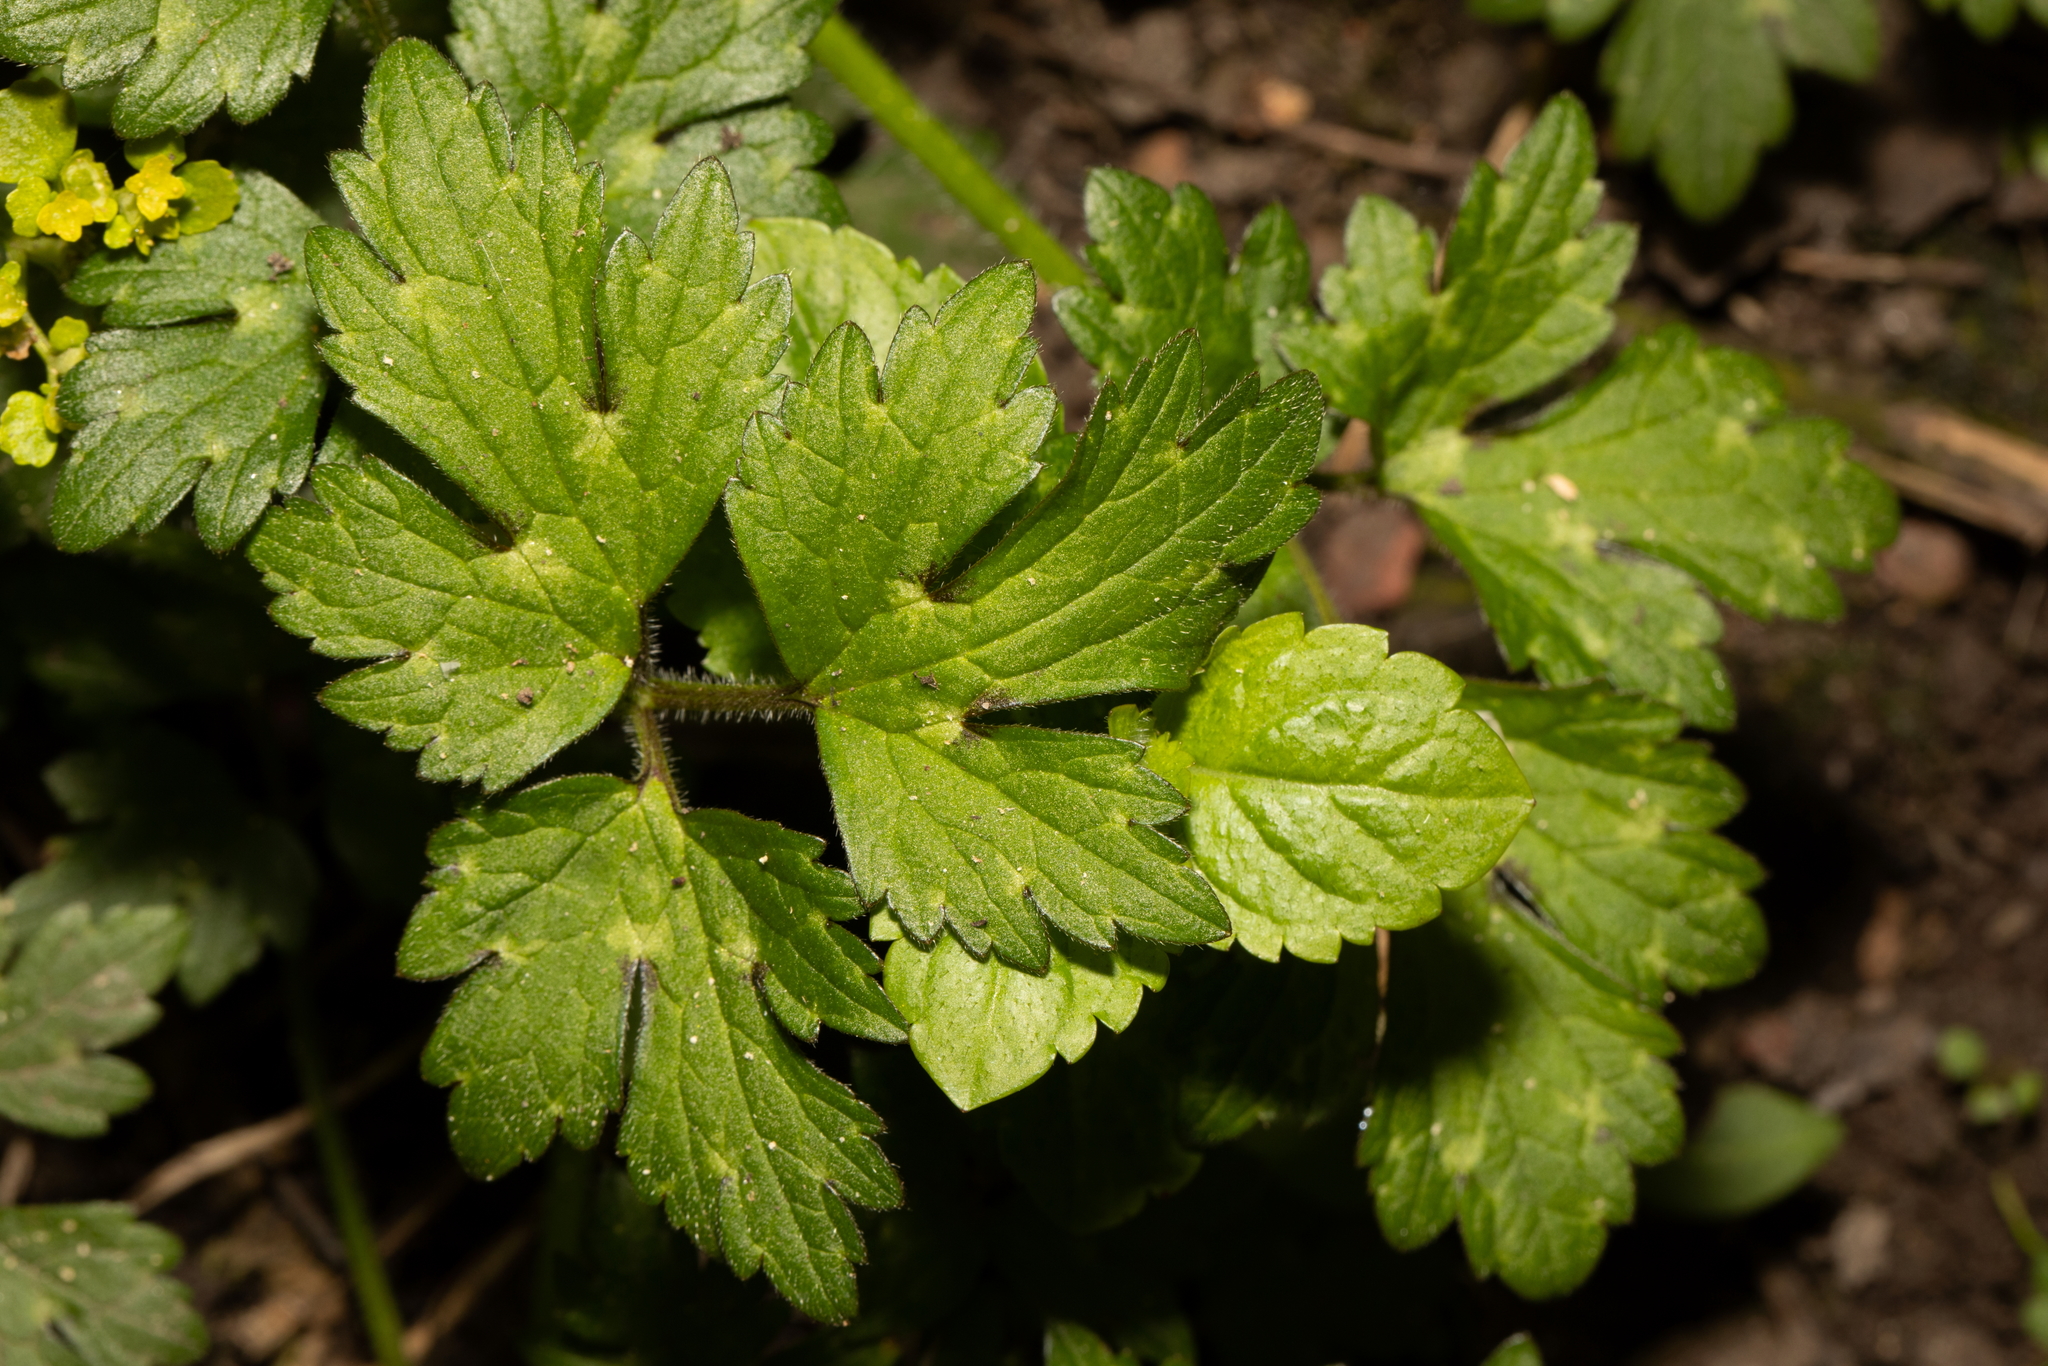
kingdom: Plantae
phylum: Tracheophyta
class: Magnoliopsida
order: Ranunculales
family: Ranunculaceae
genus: Ranunculus
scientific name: Ranunculus repens
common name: Creeping buttercup
